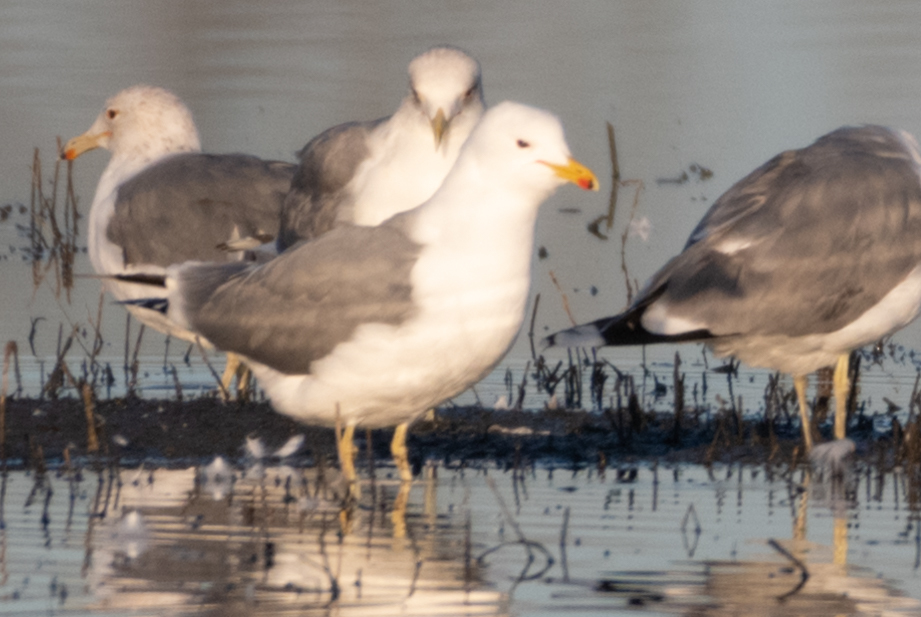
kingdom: Animalia
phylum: Chordata
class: Aves
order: Charadriiformes
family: Laridae
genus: Larus
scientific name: Larus californicus
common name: California gull
